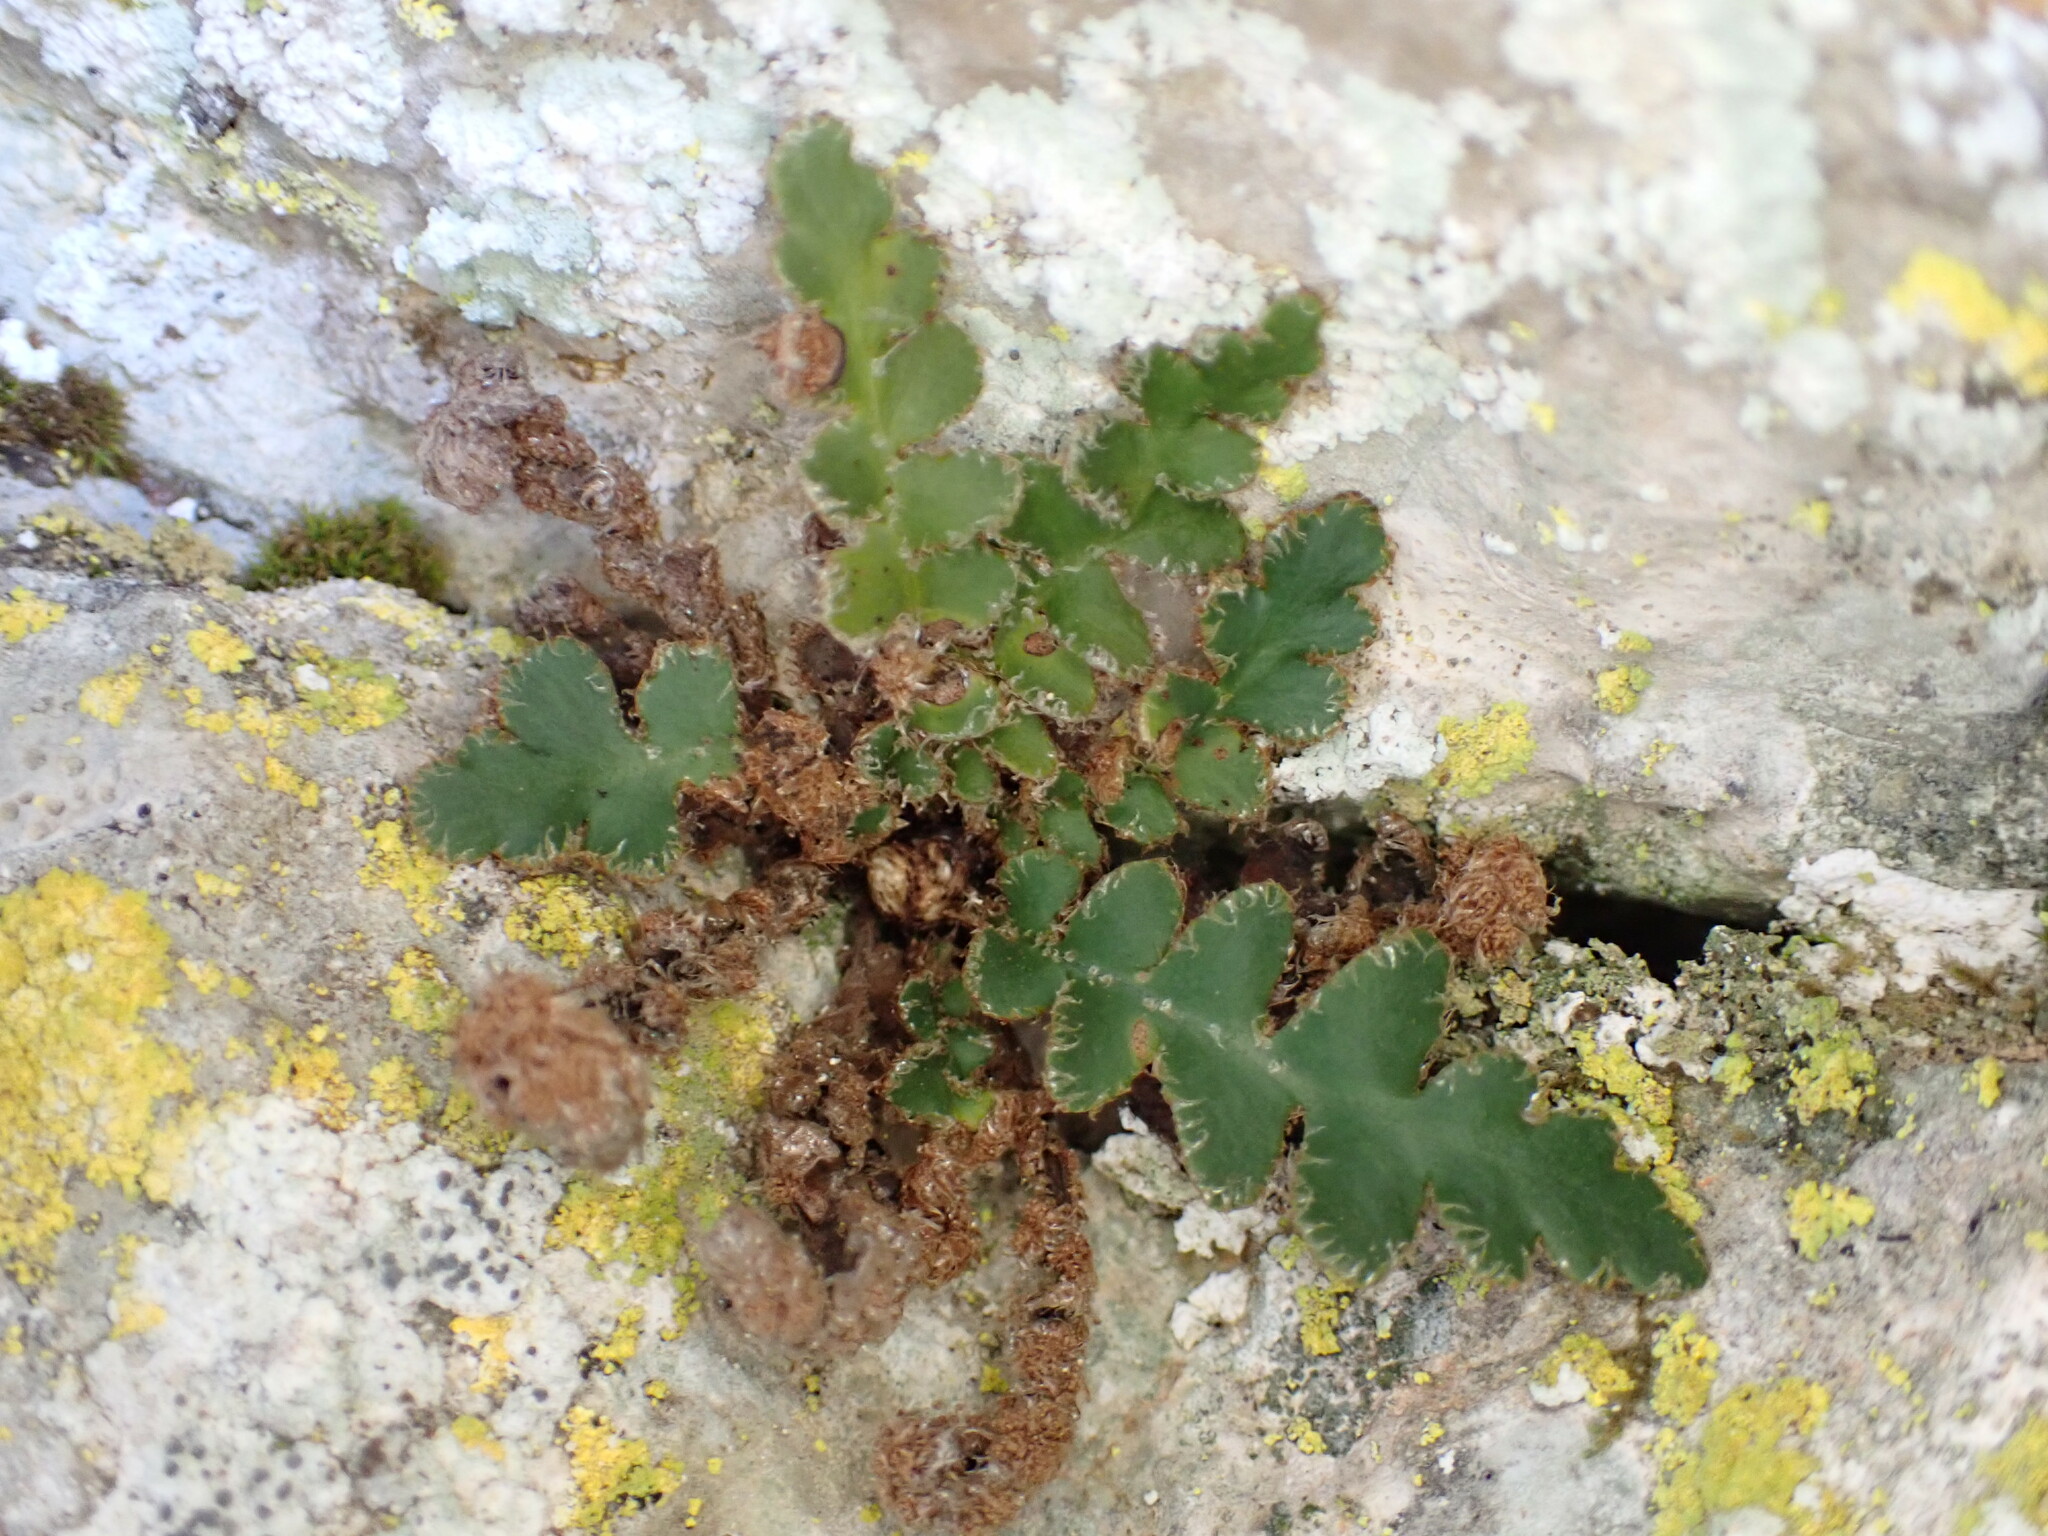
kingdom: Plantae
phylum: Tracheophyta
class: Polypodiopsida
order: Polypodiales
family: Aspleniaceae
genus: Asplenium
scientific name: Asplenium ceterach
